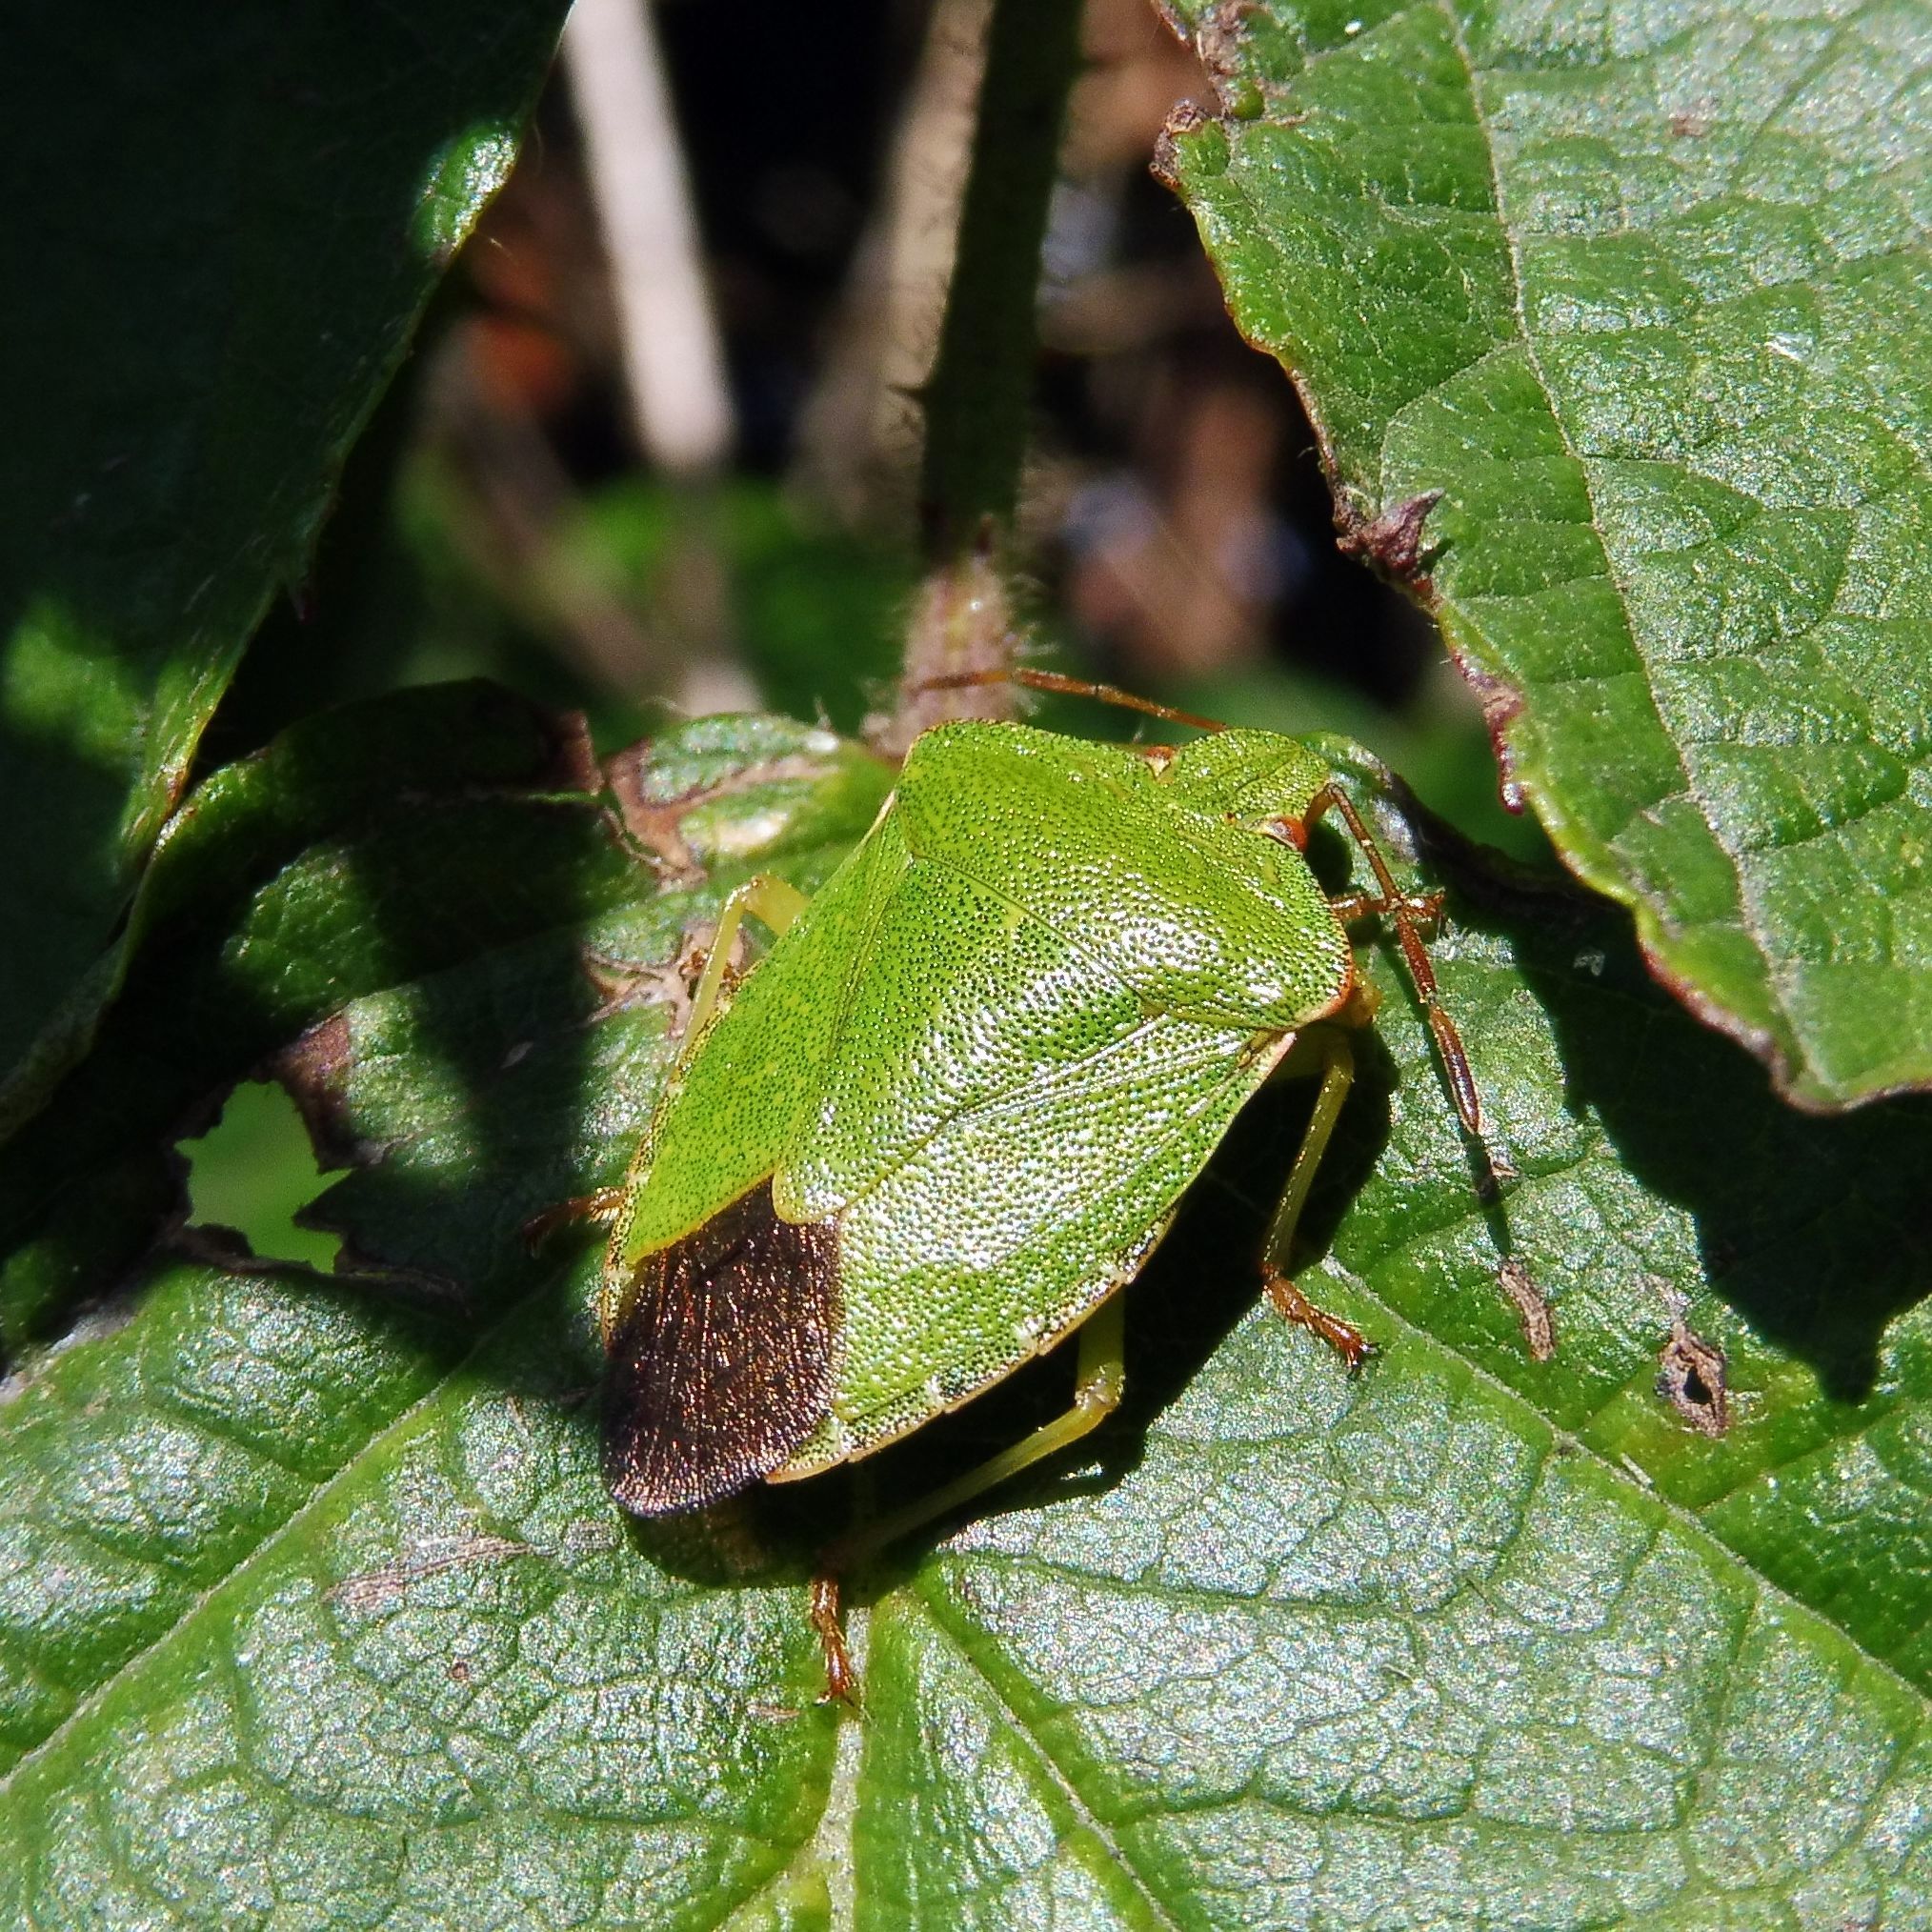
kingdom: Animalia
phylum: Arthropoda
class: Insecta
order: Hemiptera
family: Pentatomidae
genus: Palomena
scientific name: Palomena prasina
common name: Green shieldbug
